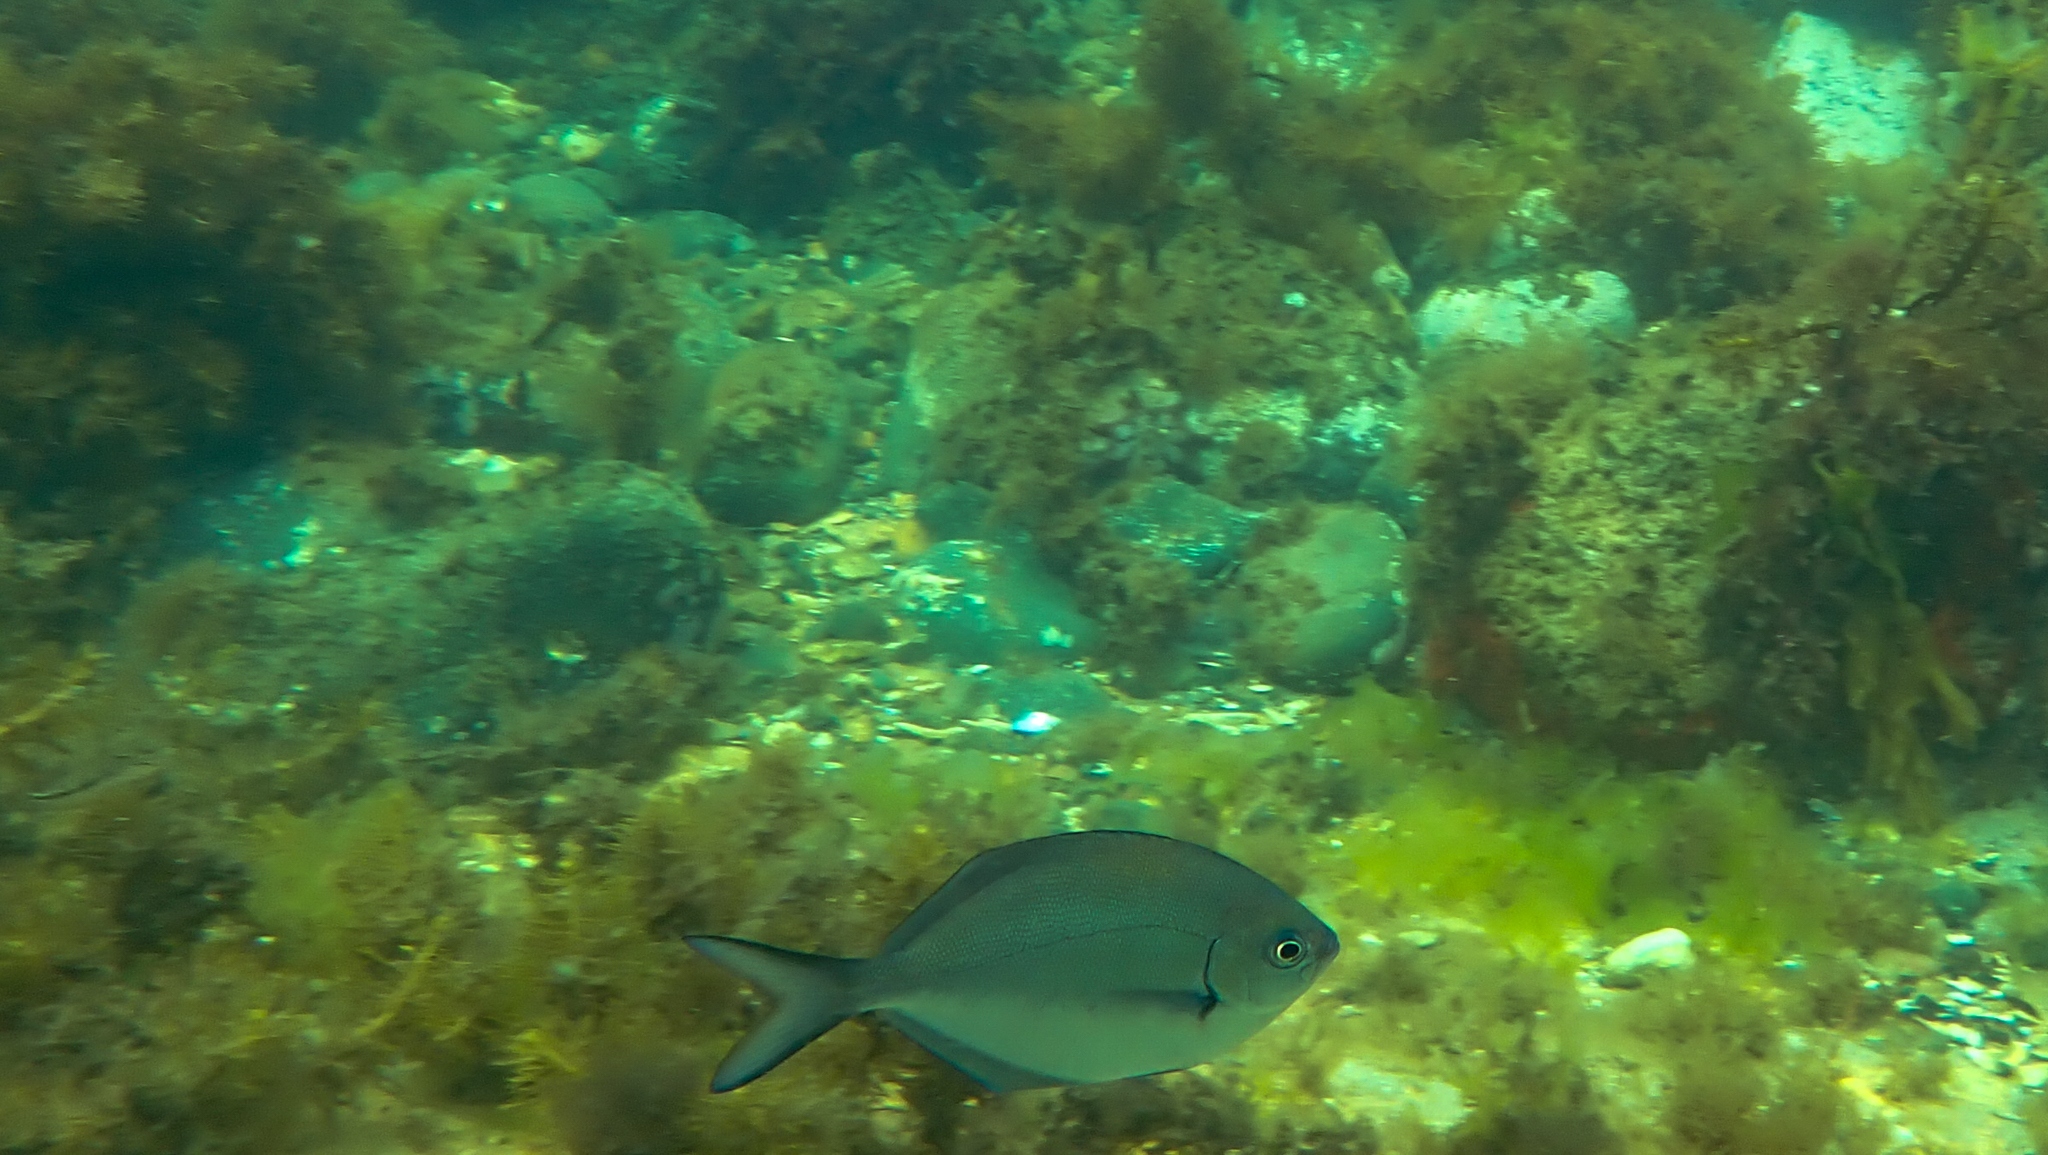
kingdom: Animalia
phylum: Chordata
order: Perciformes
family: Kyphosidae
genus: Scorpis
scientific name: Scorpis lineolata
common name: Sweep
